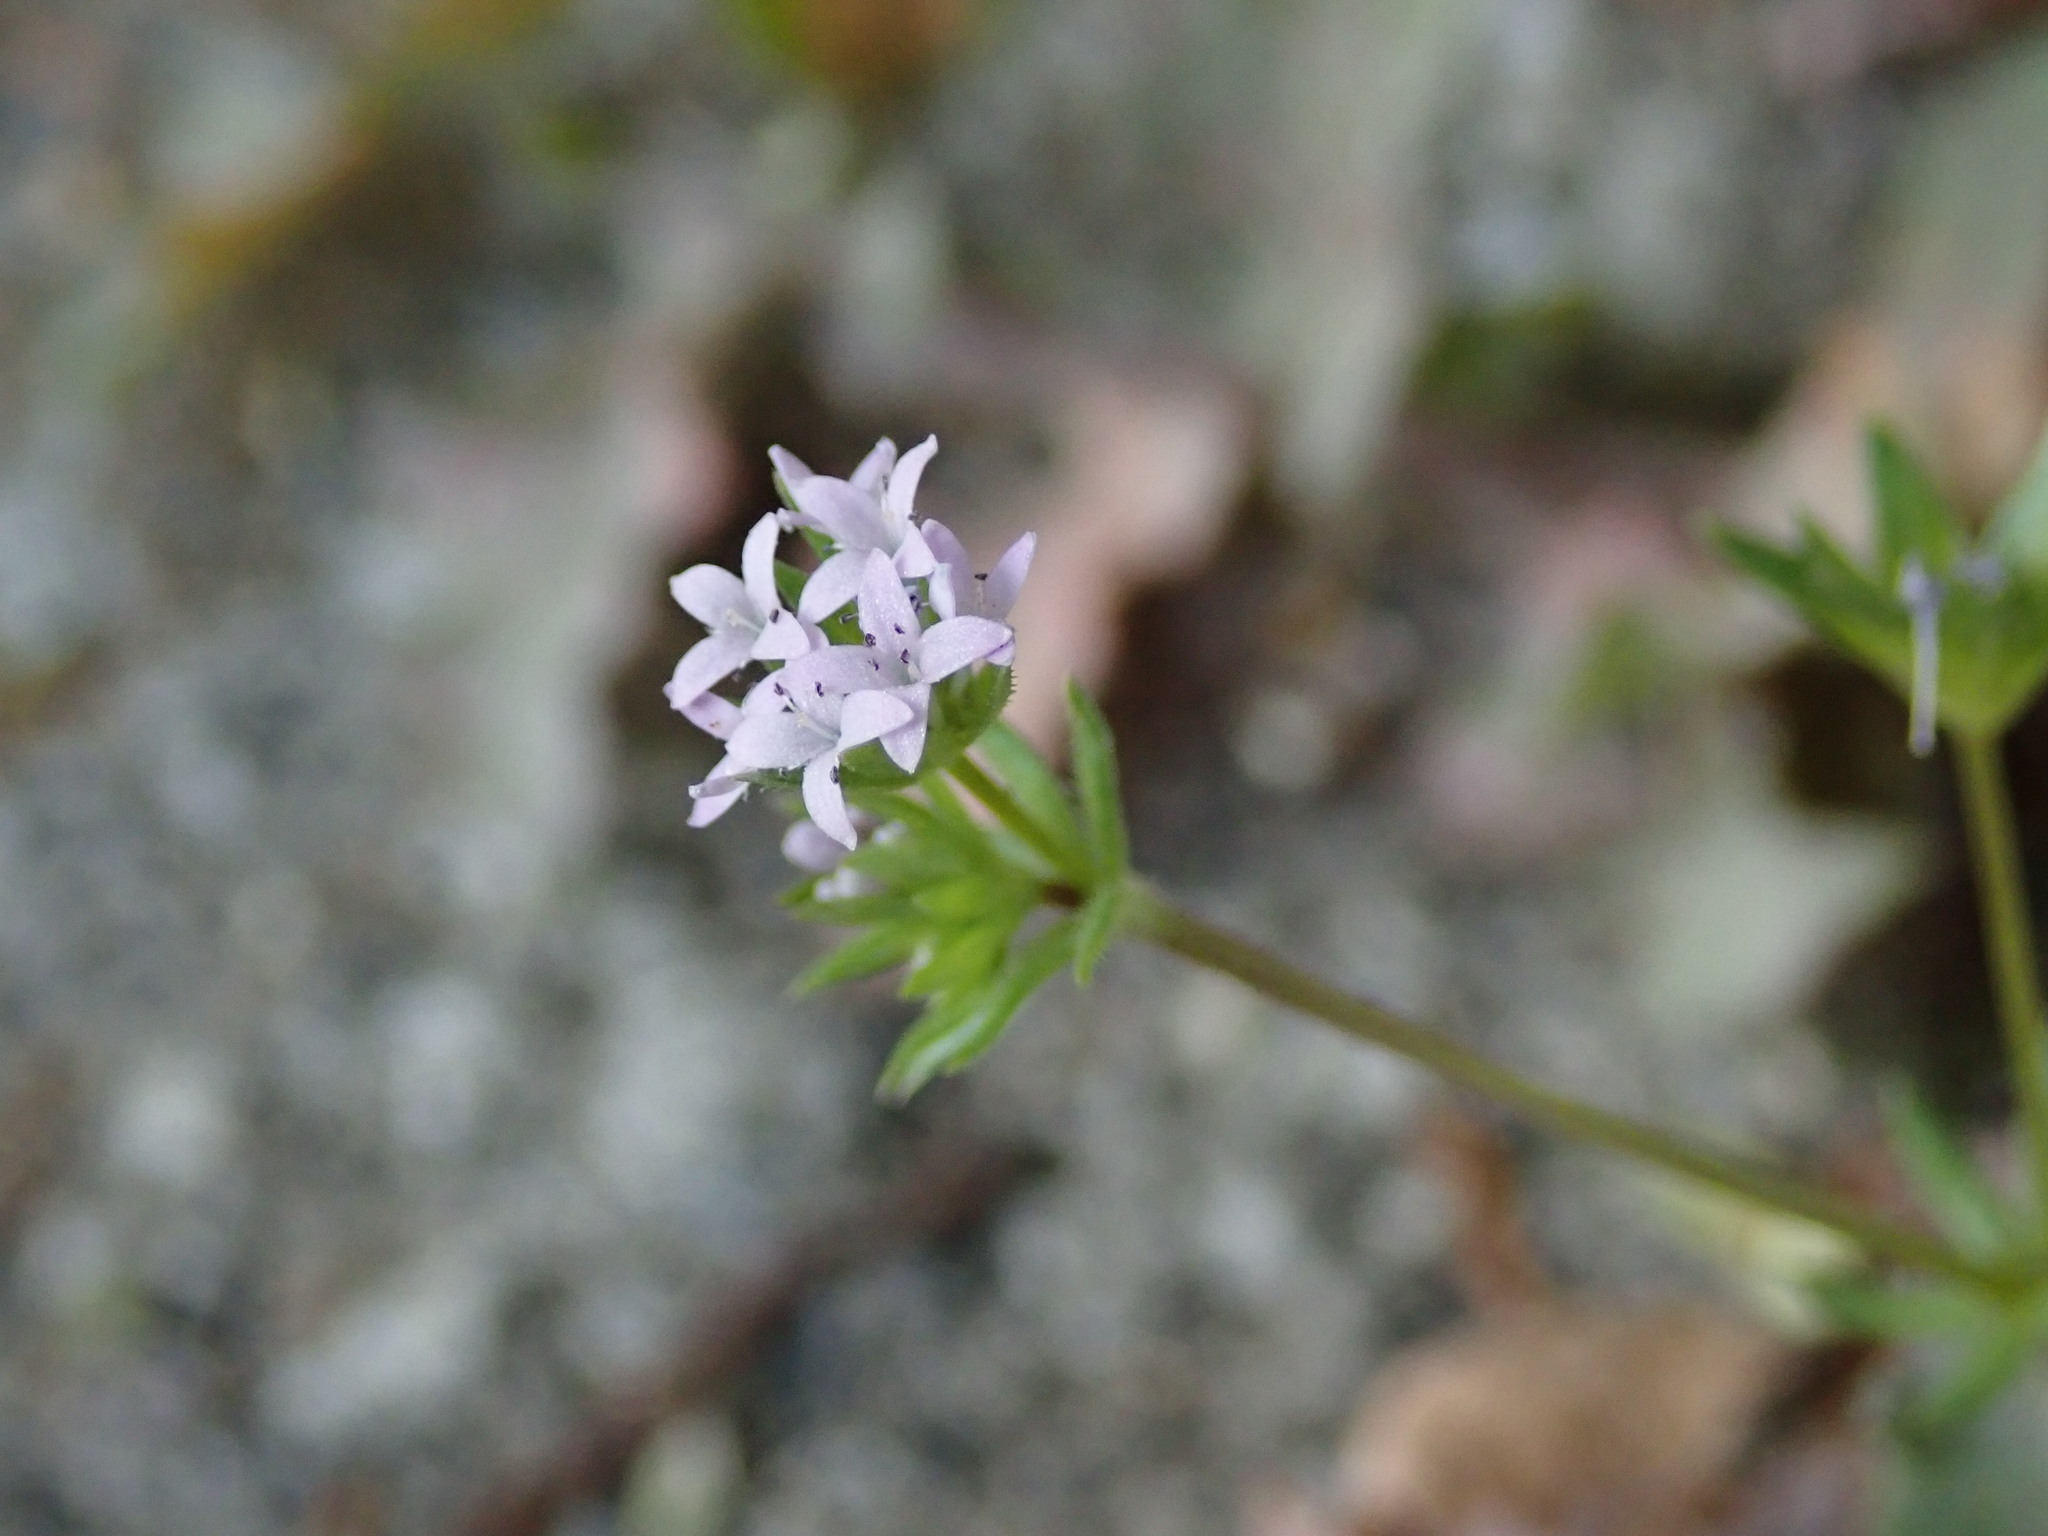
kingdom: Plantae
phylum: Tracheophyta
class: Magnoliopsida
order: Gentianales
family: Rubiaceae
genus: Sherardia
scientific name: Sherardia arvensis
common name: Field madder
